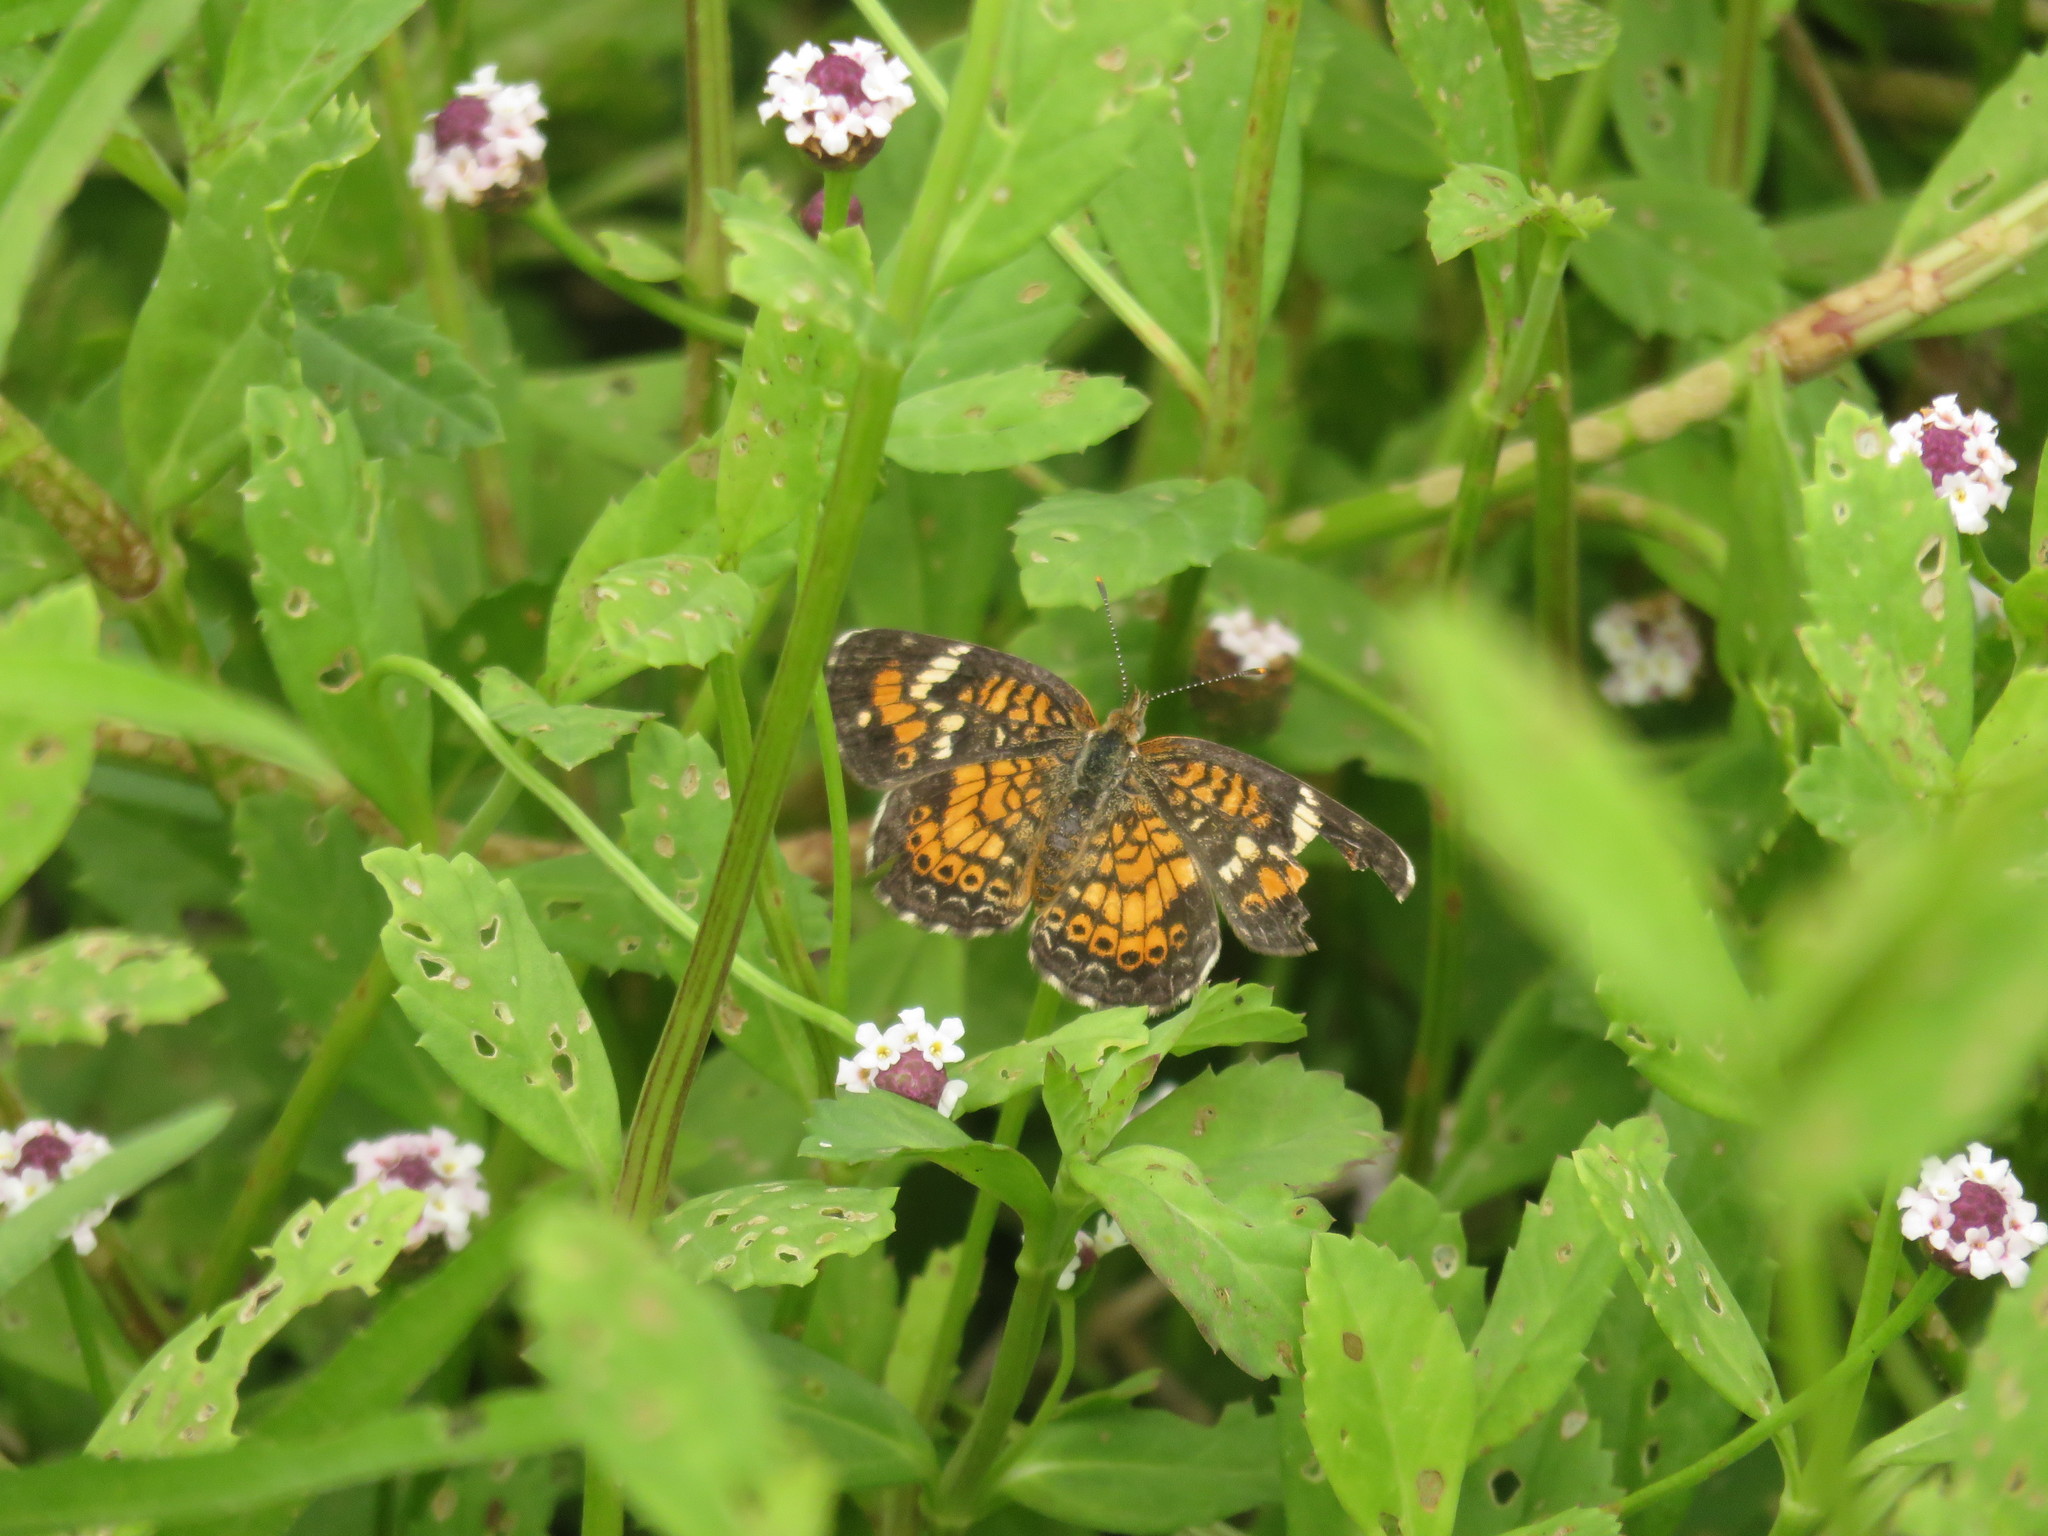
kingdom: Animalia
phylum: Arthropoda
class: Insecta
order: Lepidoptera
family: Nymphalidae
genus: Phyciodes
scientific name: Phyciodes phaon
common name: Phaon crescent
